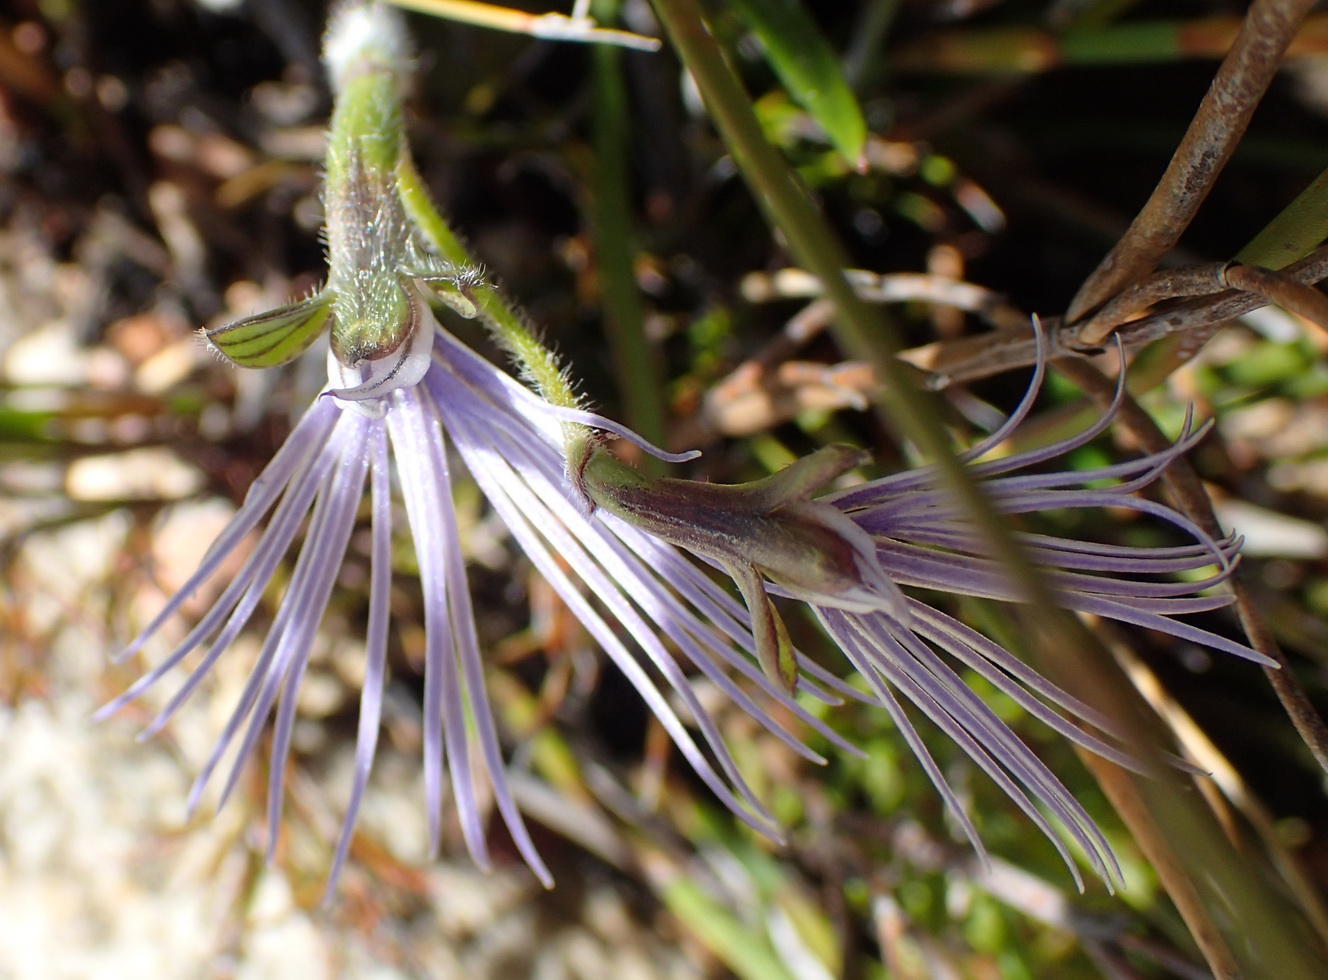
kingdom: Plantae
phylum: Tracheophyta
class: Liliopsida
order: Asparagales
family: Orchidaceae
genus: Holothrix
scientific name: Holothrix burmanniana
